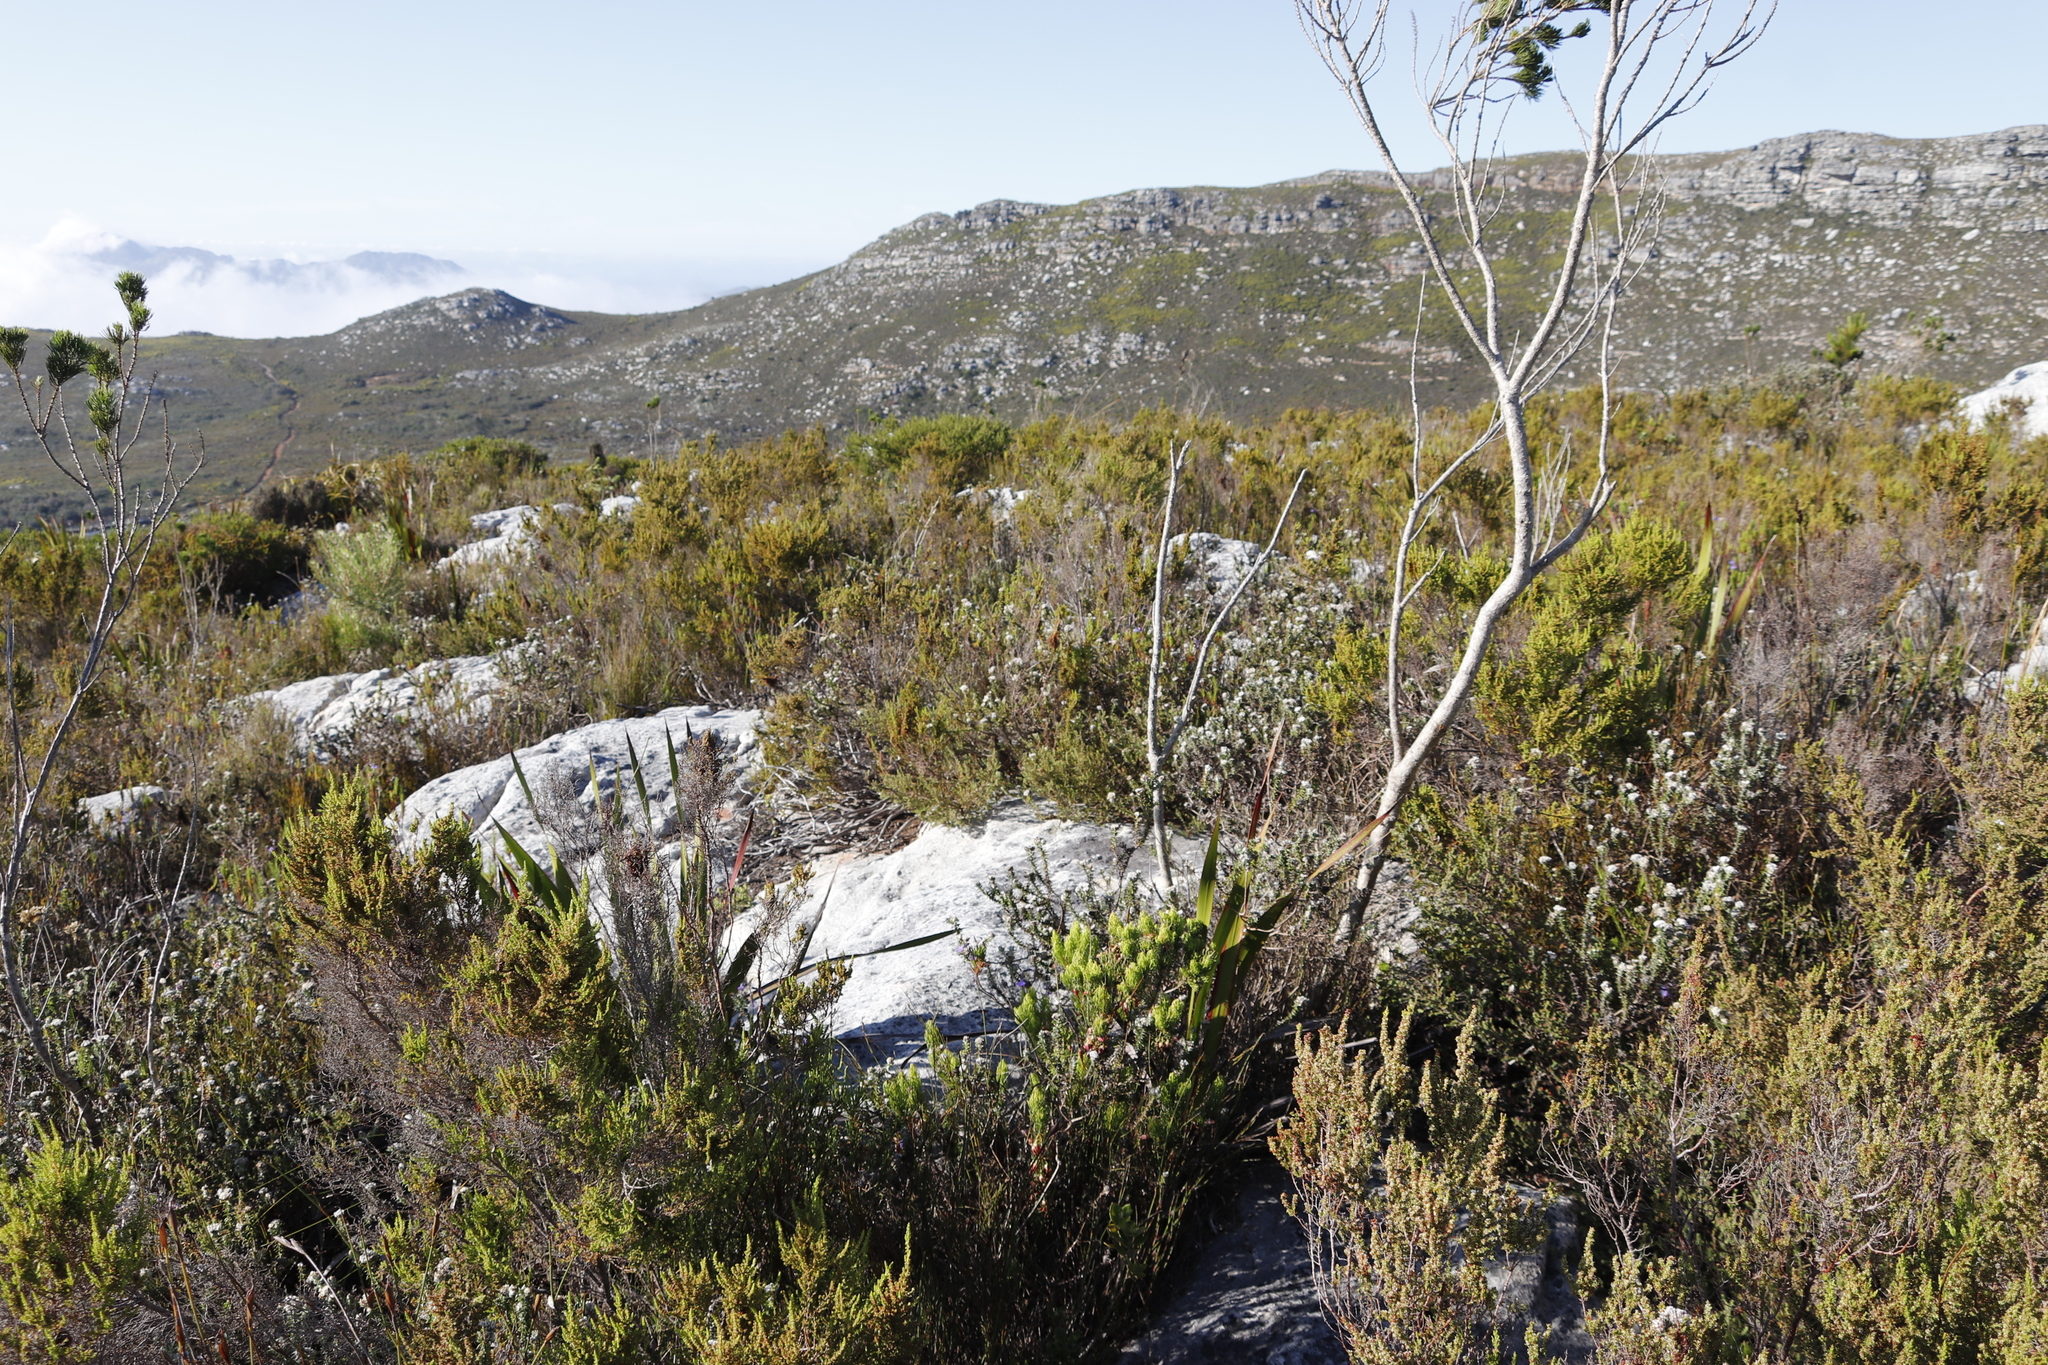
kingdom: Plantae
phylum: Tracheophyta
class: Magnoliopsida
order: Ericales
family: Ericaceae
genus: Erica
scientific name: Erica muscosa
